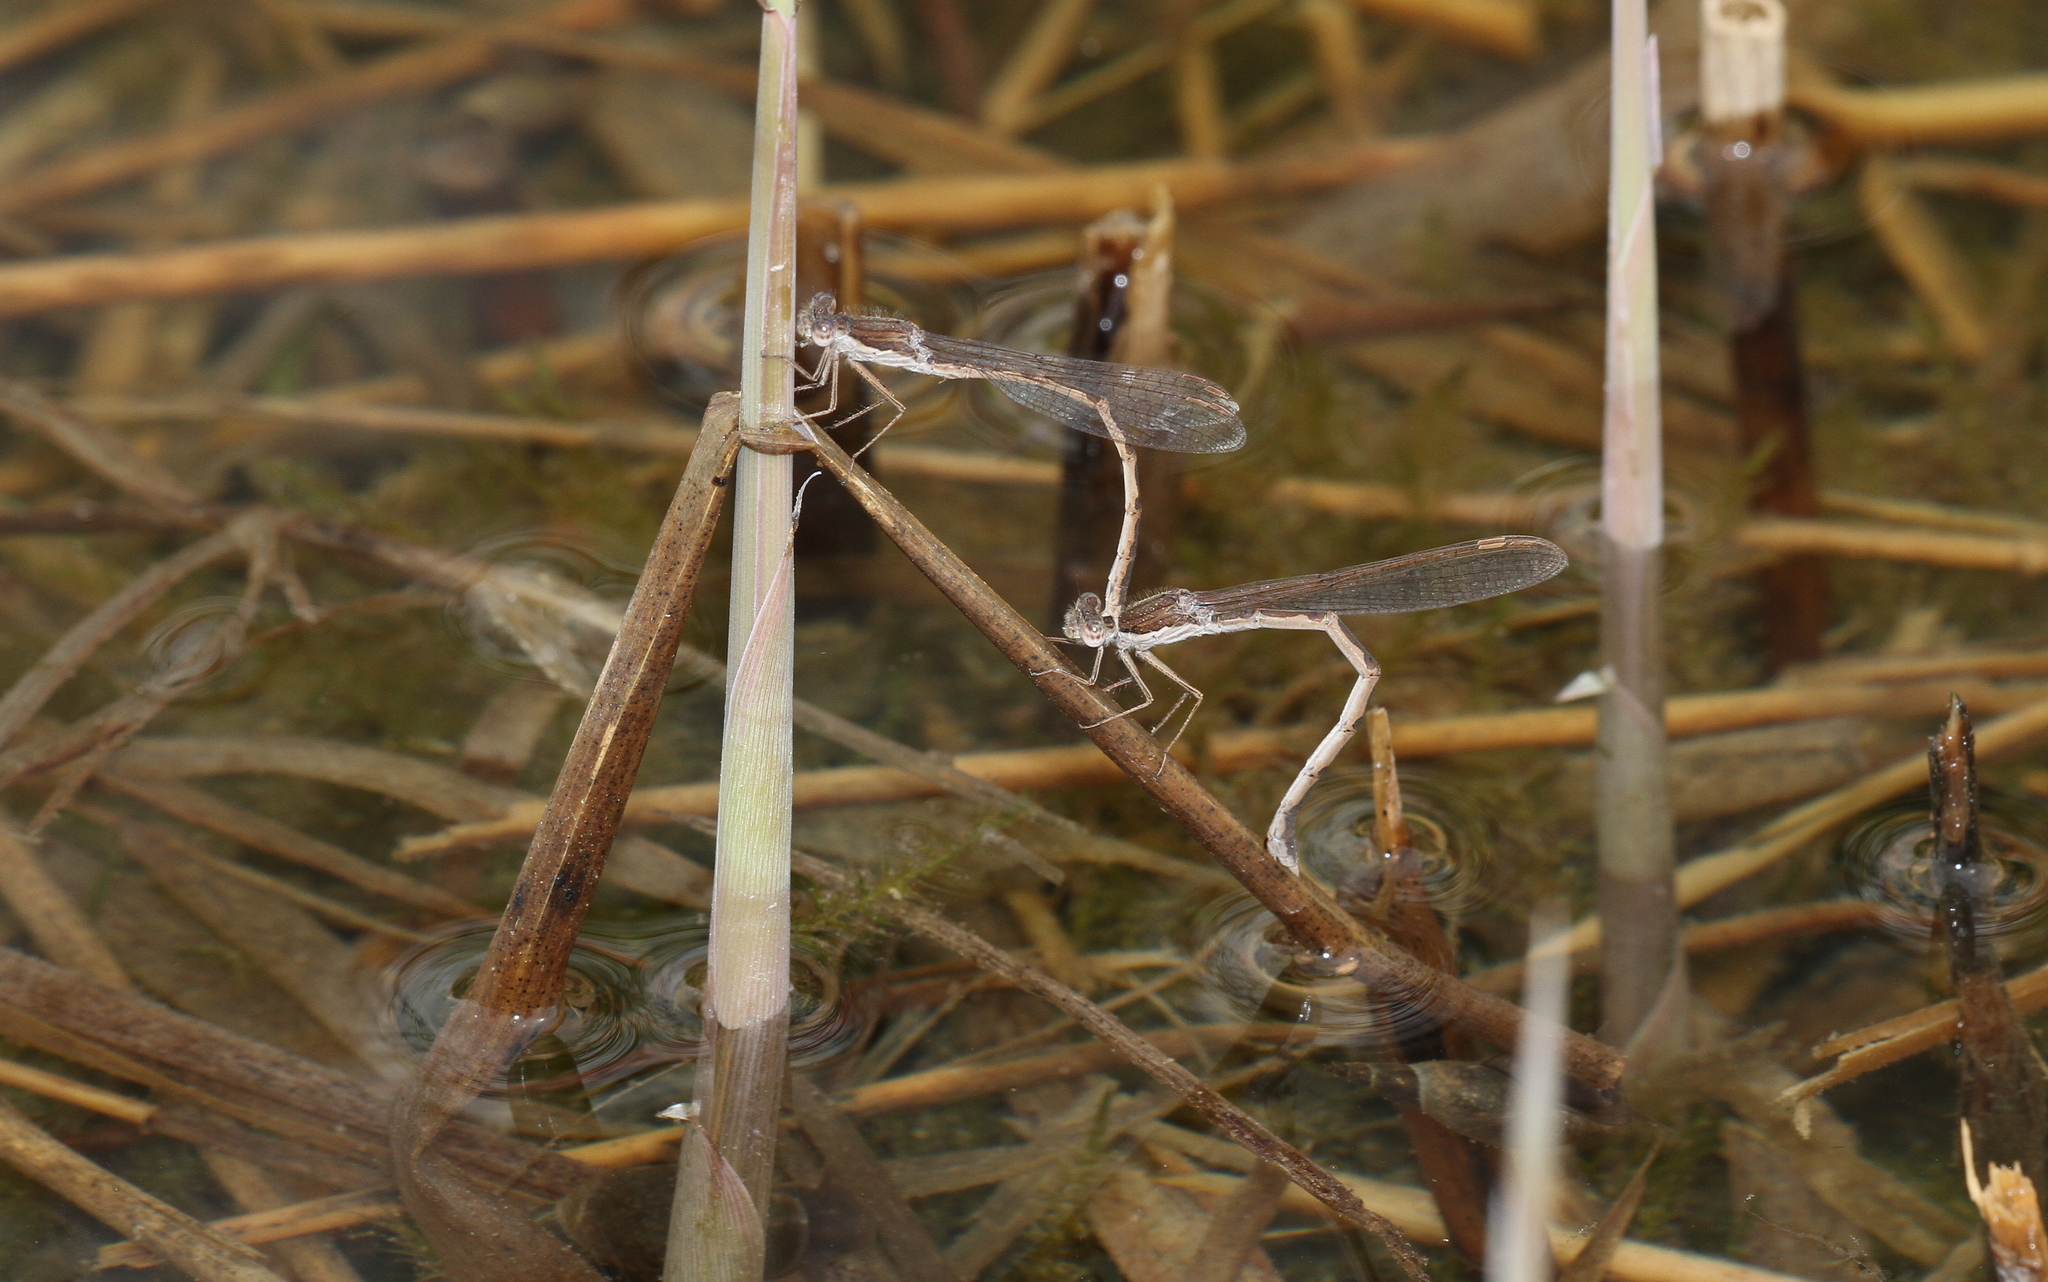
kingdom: Animalia
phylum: Arthropoda
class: Insecta
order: Odonata
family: Lestidae
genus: Sympecma
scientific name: Sympecma fusca
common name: Common winter damsel
